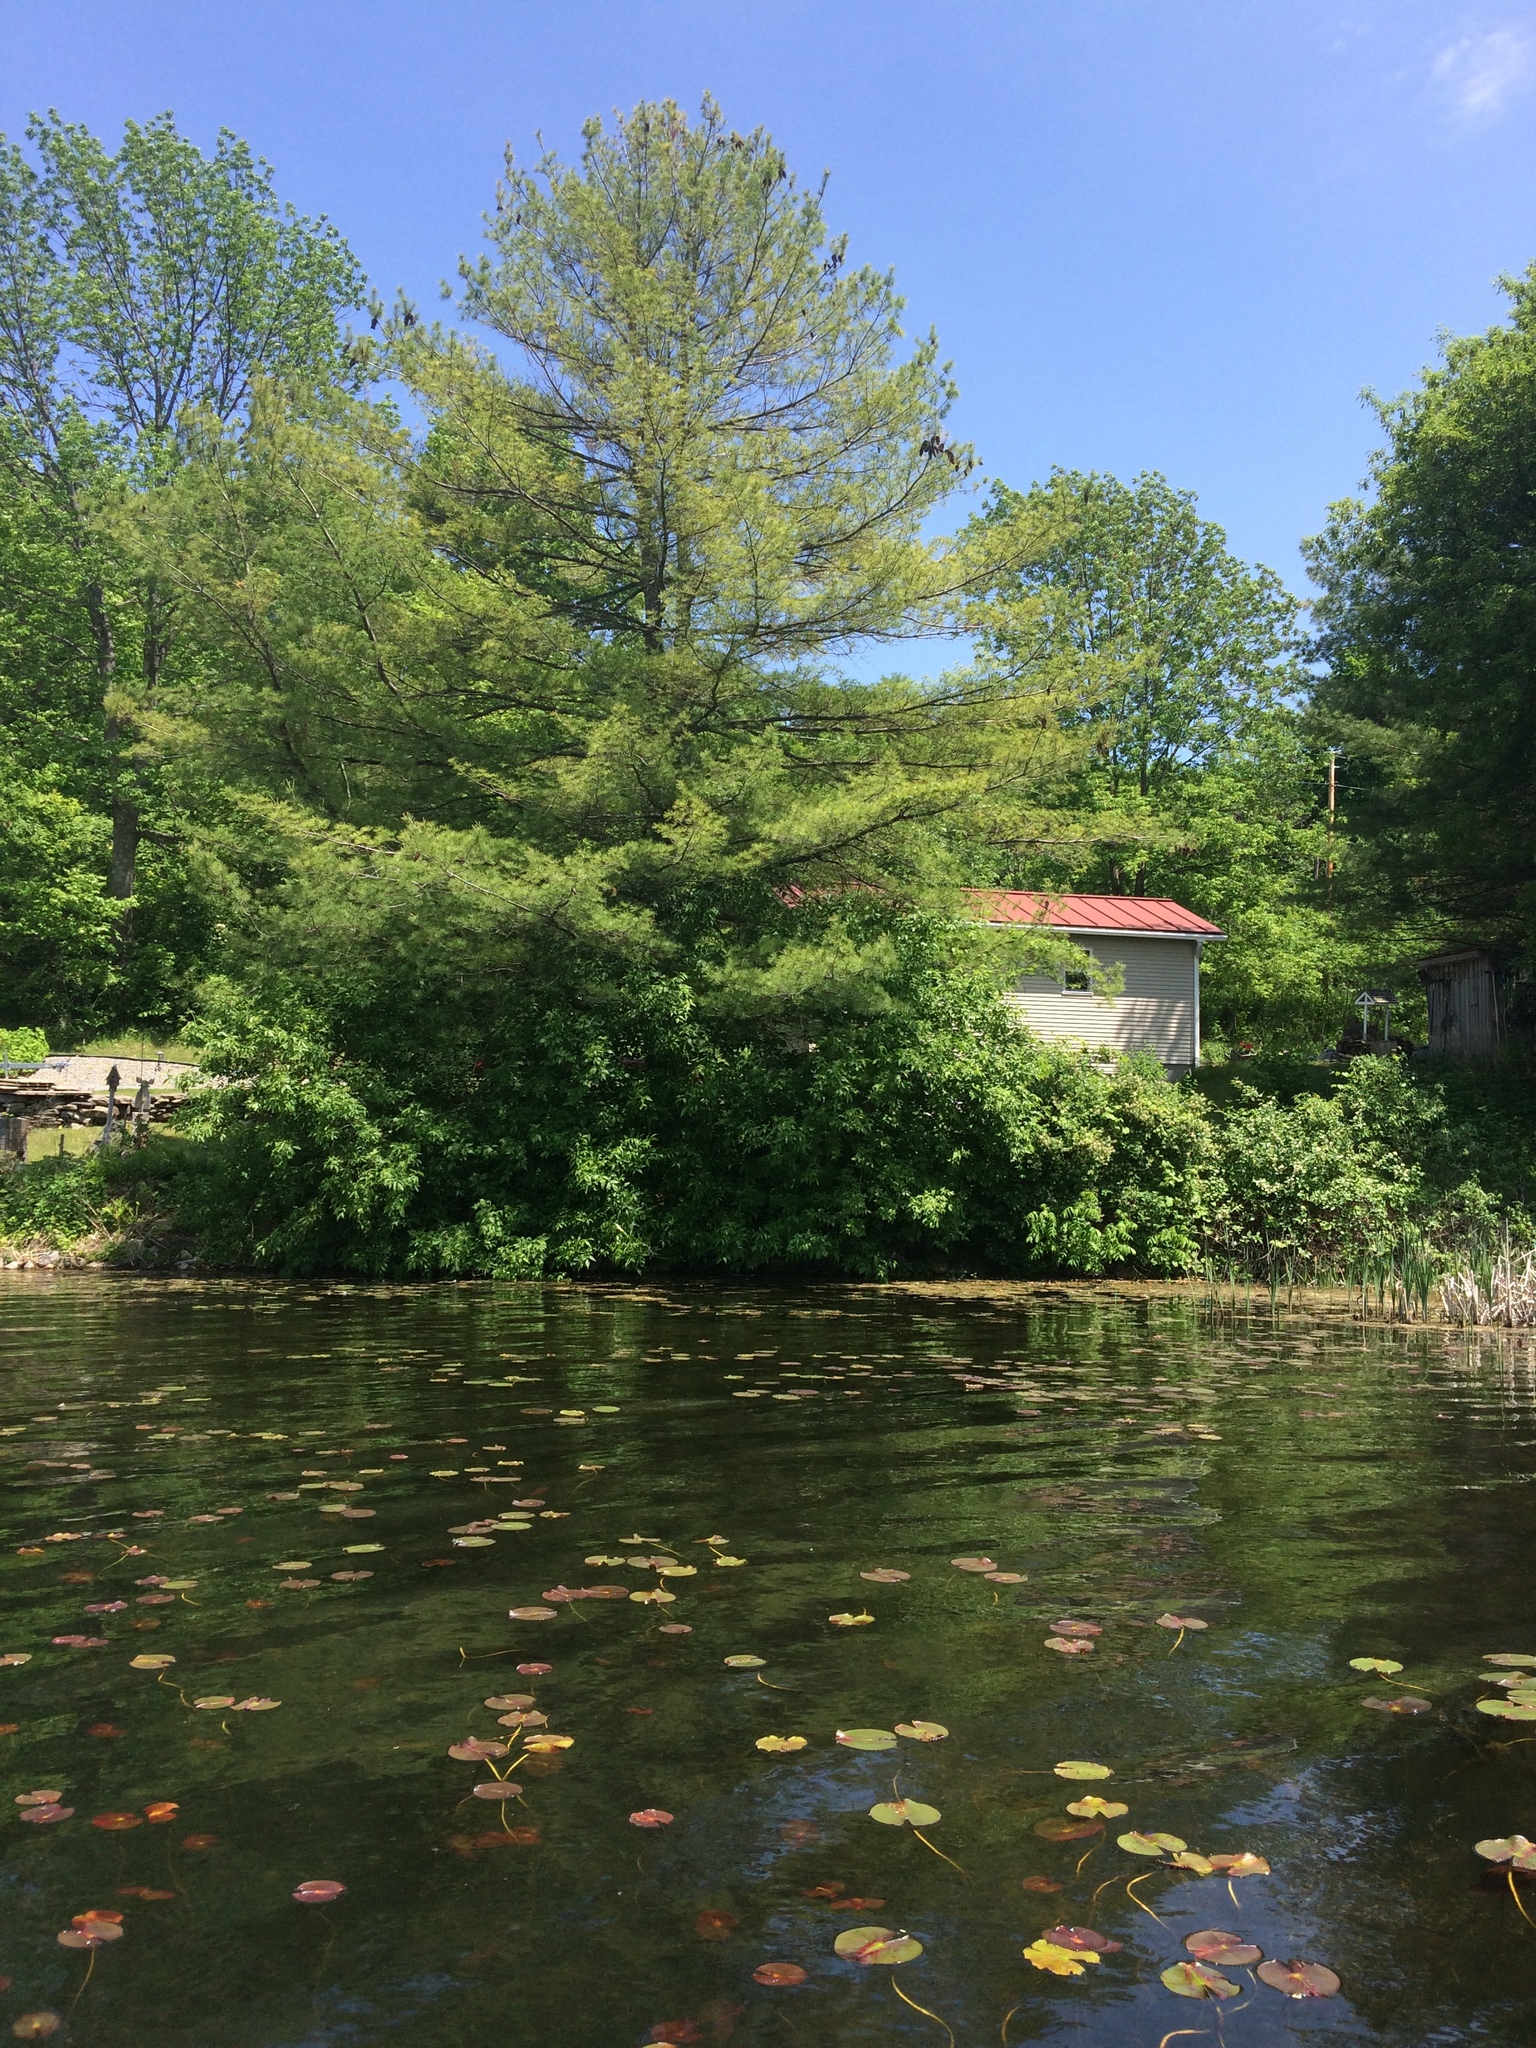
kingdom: Plantae
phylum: Tracheophyta
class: Pinopsida
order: Pinales
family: Pinaceae
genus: Pinus
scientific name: Pinus strobus
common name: Weymouth pine
